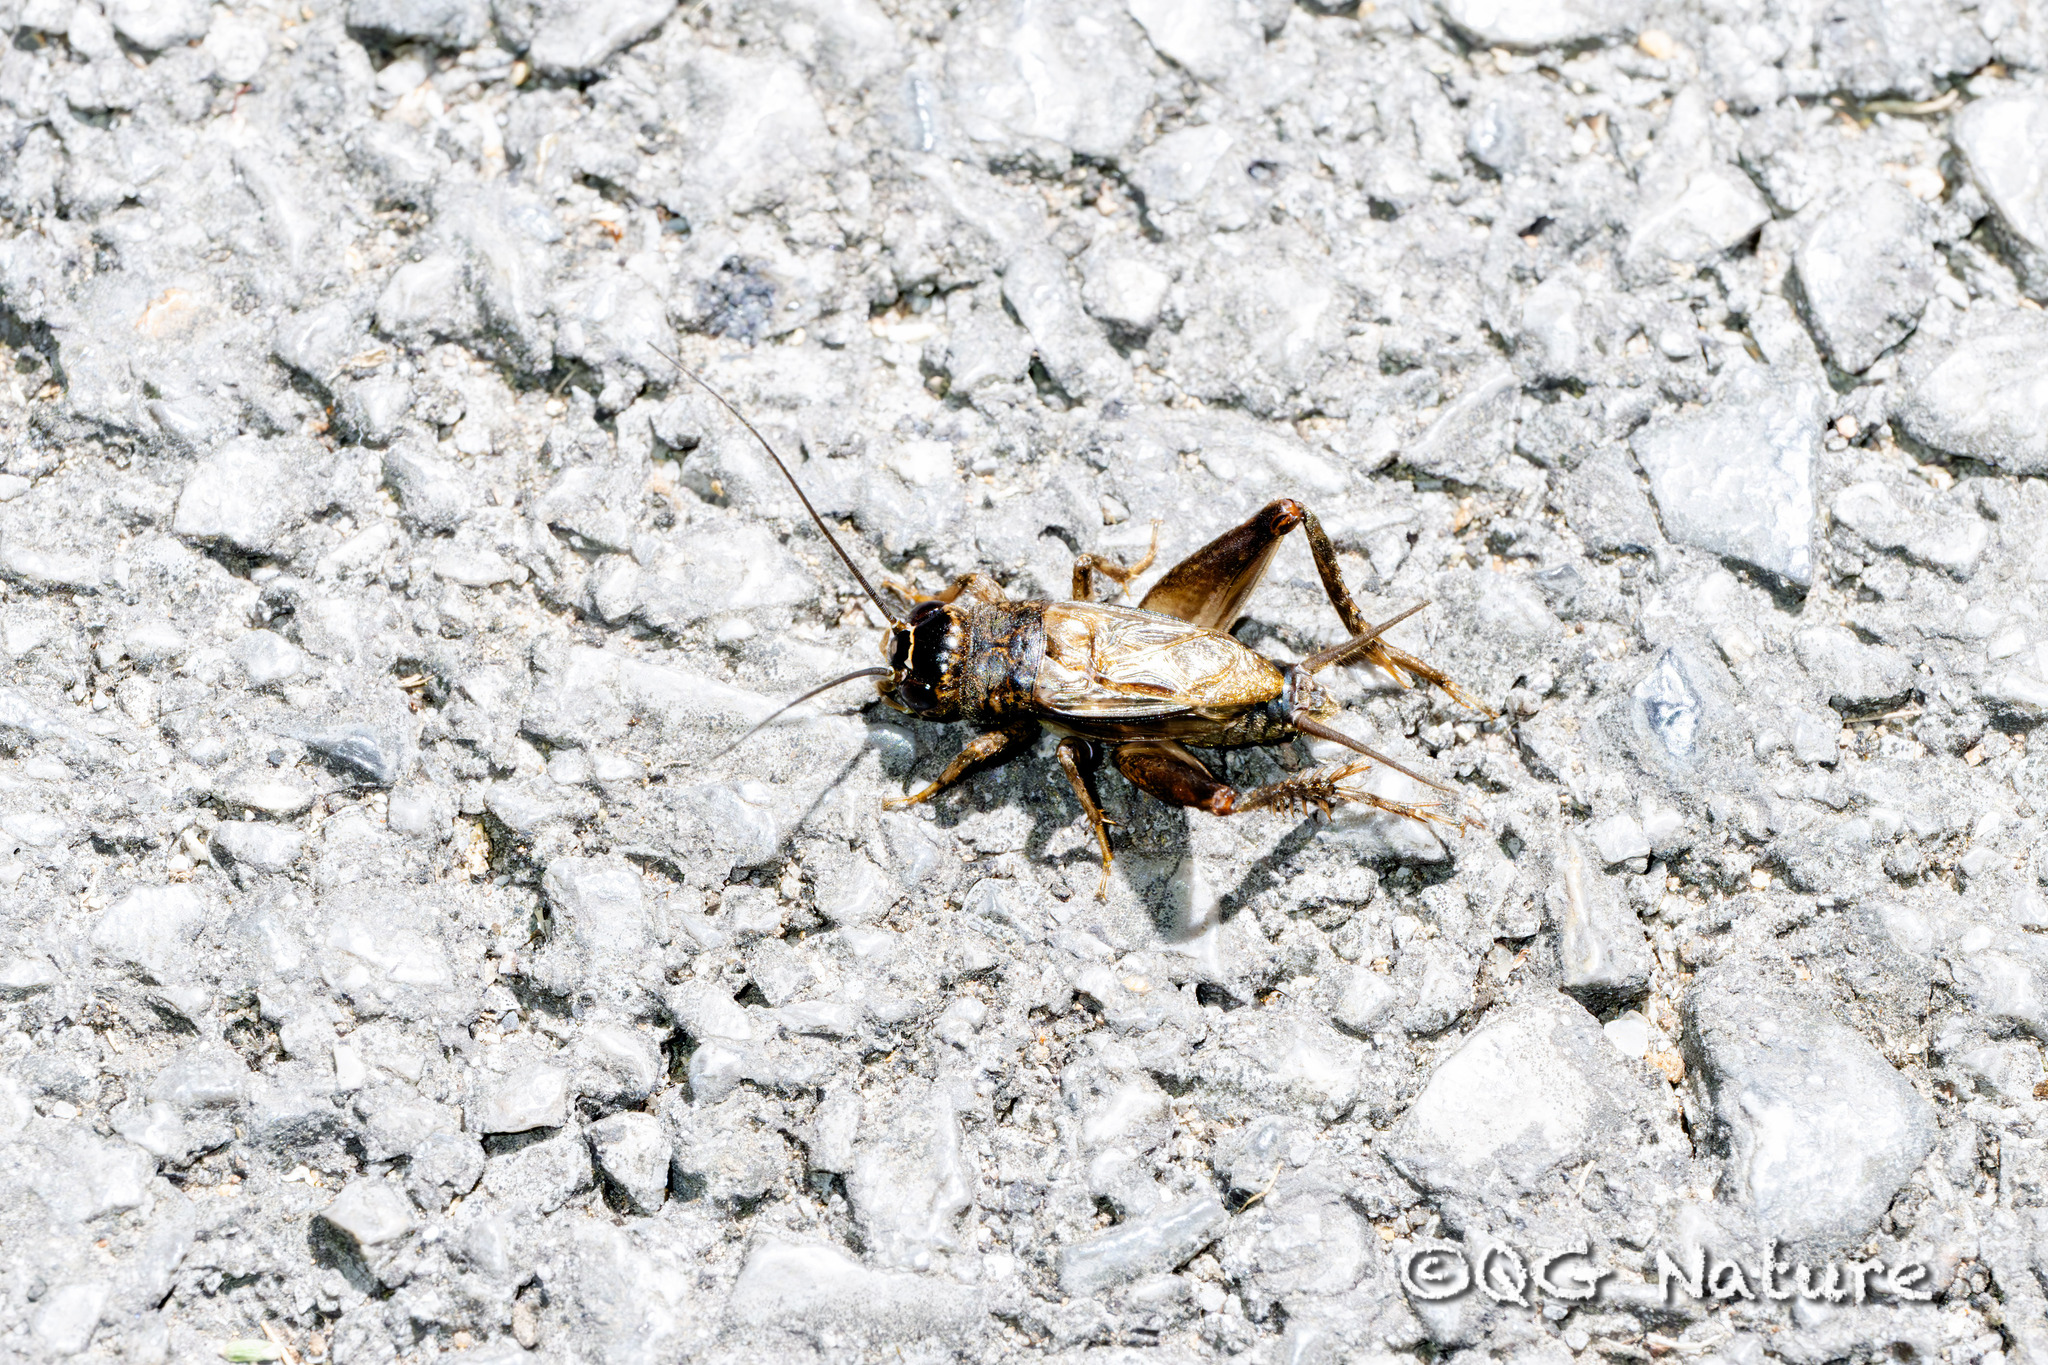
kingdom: Animalia
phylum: Arthropoda
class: Insecta
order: Orthoptera
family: Gryllidae
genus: Svercacheta
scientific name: Svercacheta siamensis
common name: Cricket
